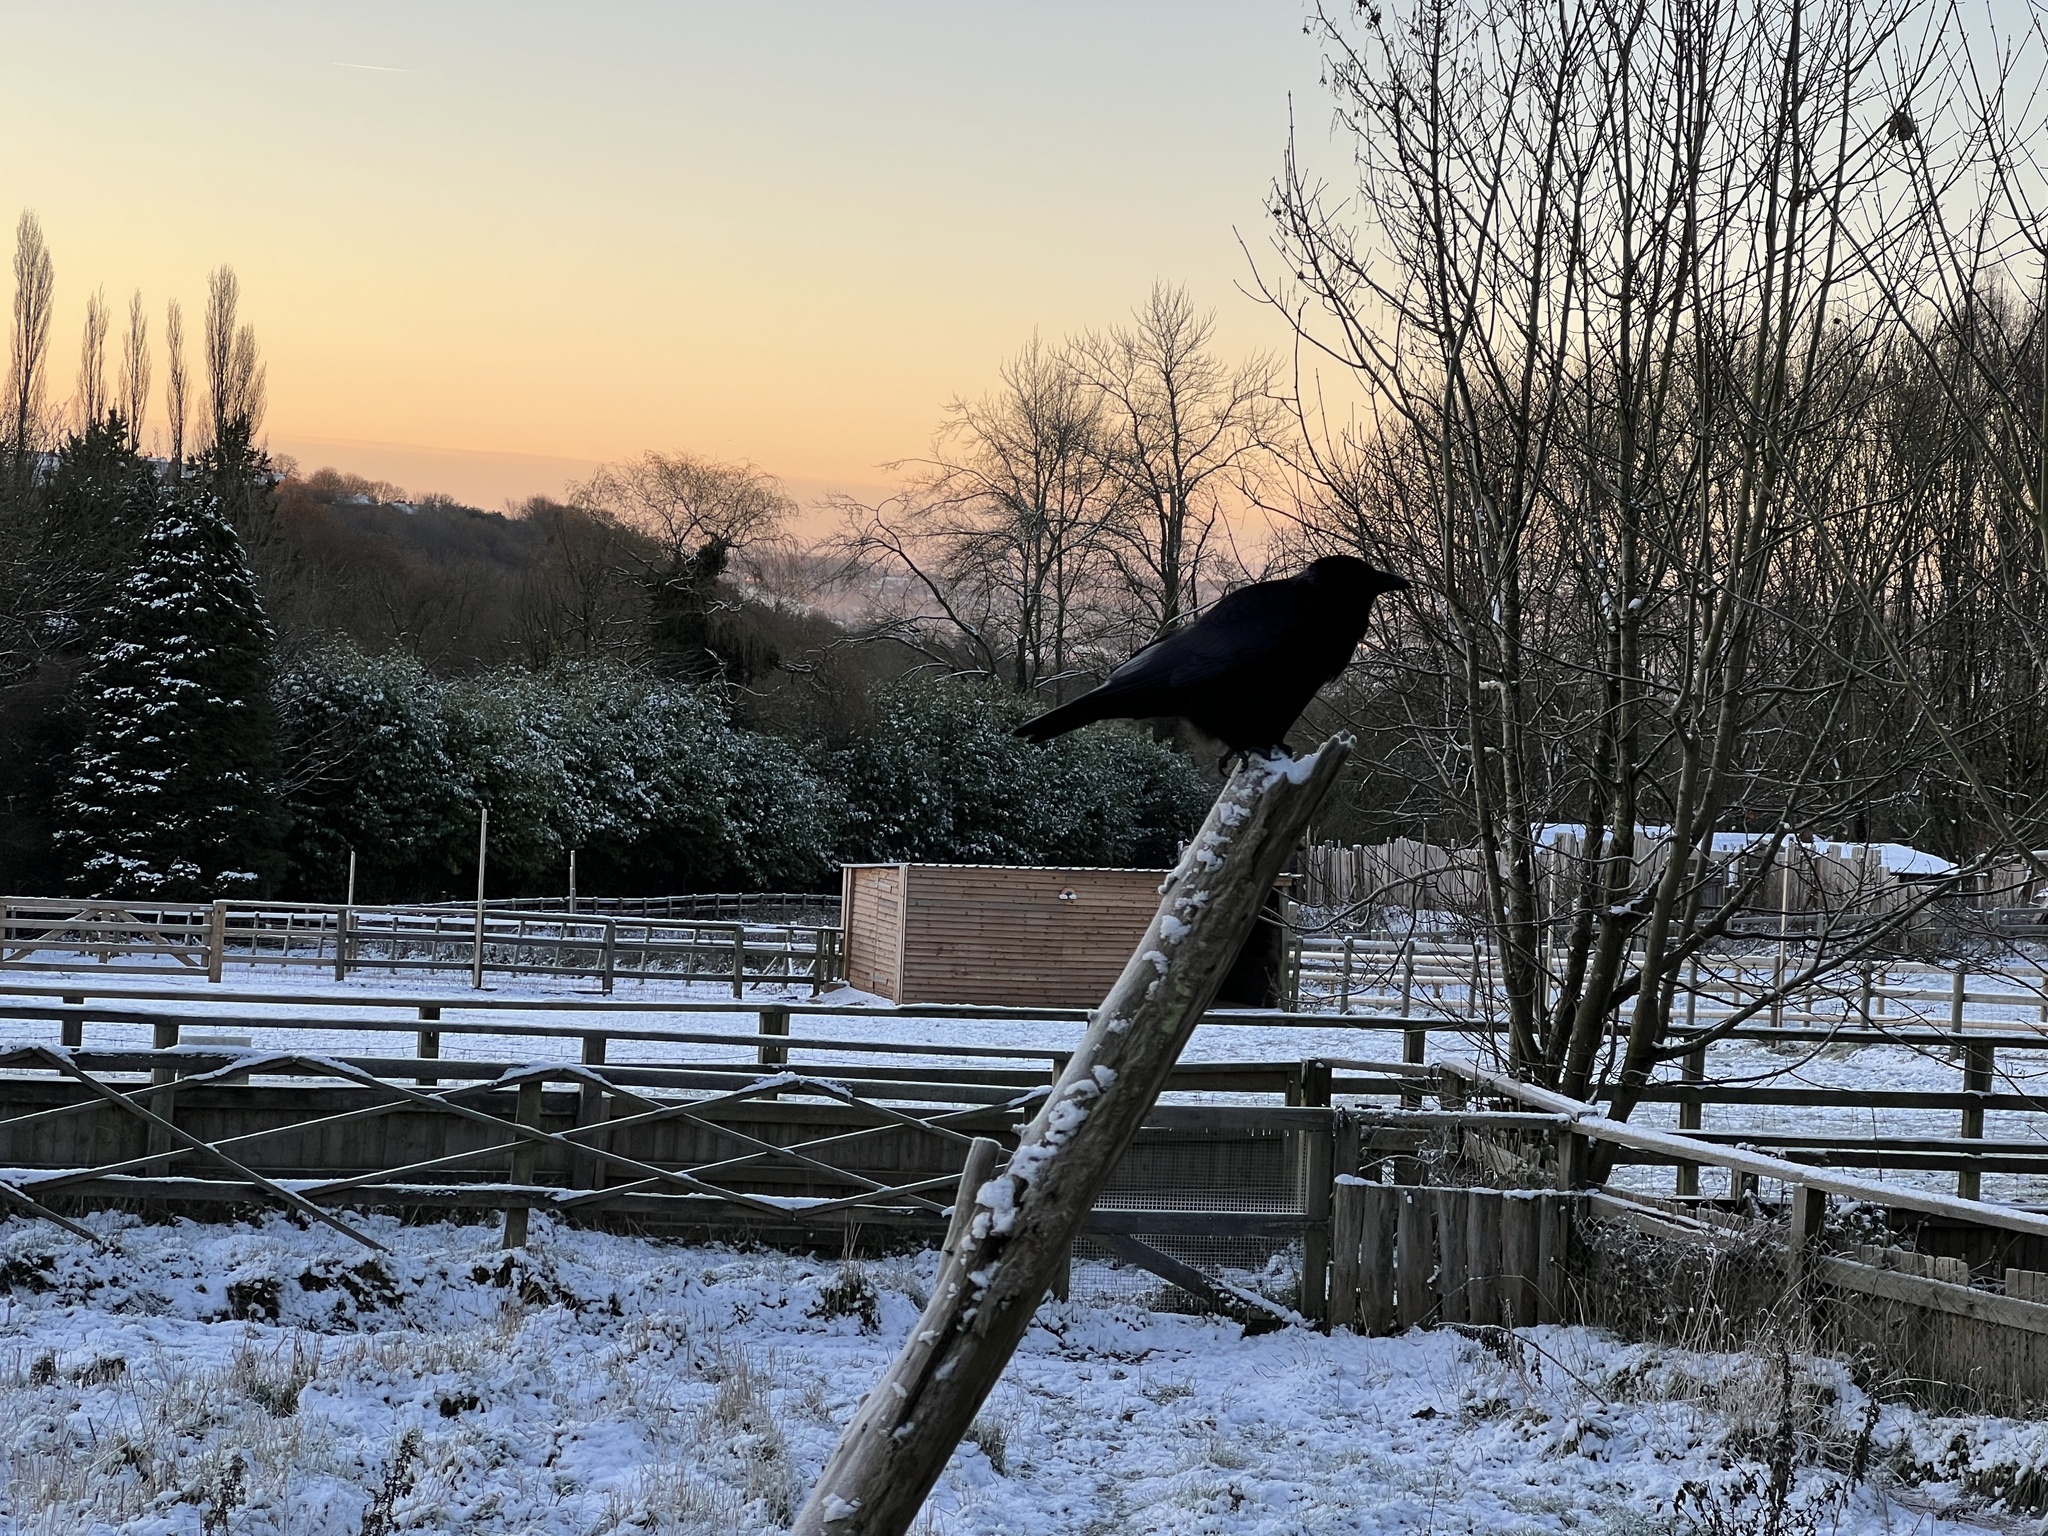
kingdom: Animalia
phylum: Chordata
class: Aves
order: Passeriformes
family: Corvidae
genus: Corvus
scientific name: Corvus corone
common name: Carrion crow
